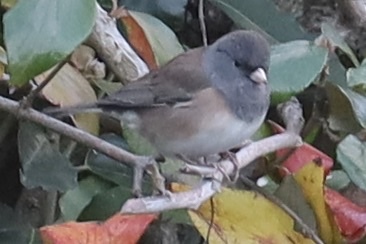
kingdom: Animalia
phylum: Chordata
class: Aves
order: Passeriformes
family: Passerellidae
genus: Junco
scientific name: Junco hyemalis
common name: Dark-eyed junco
